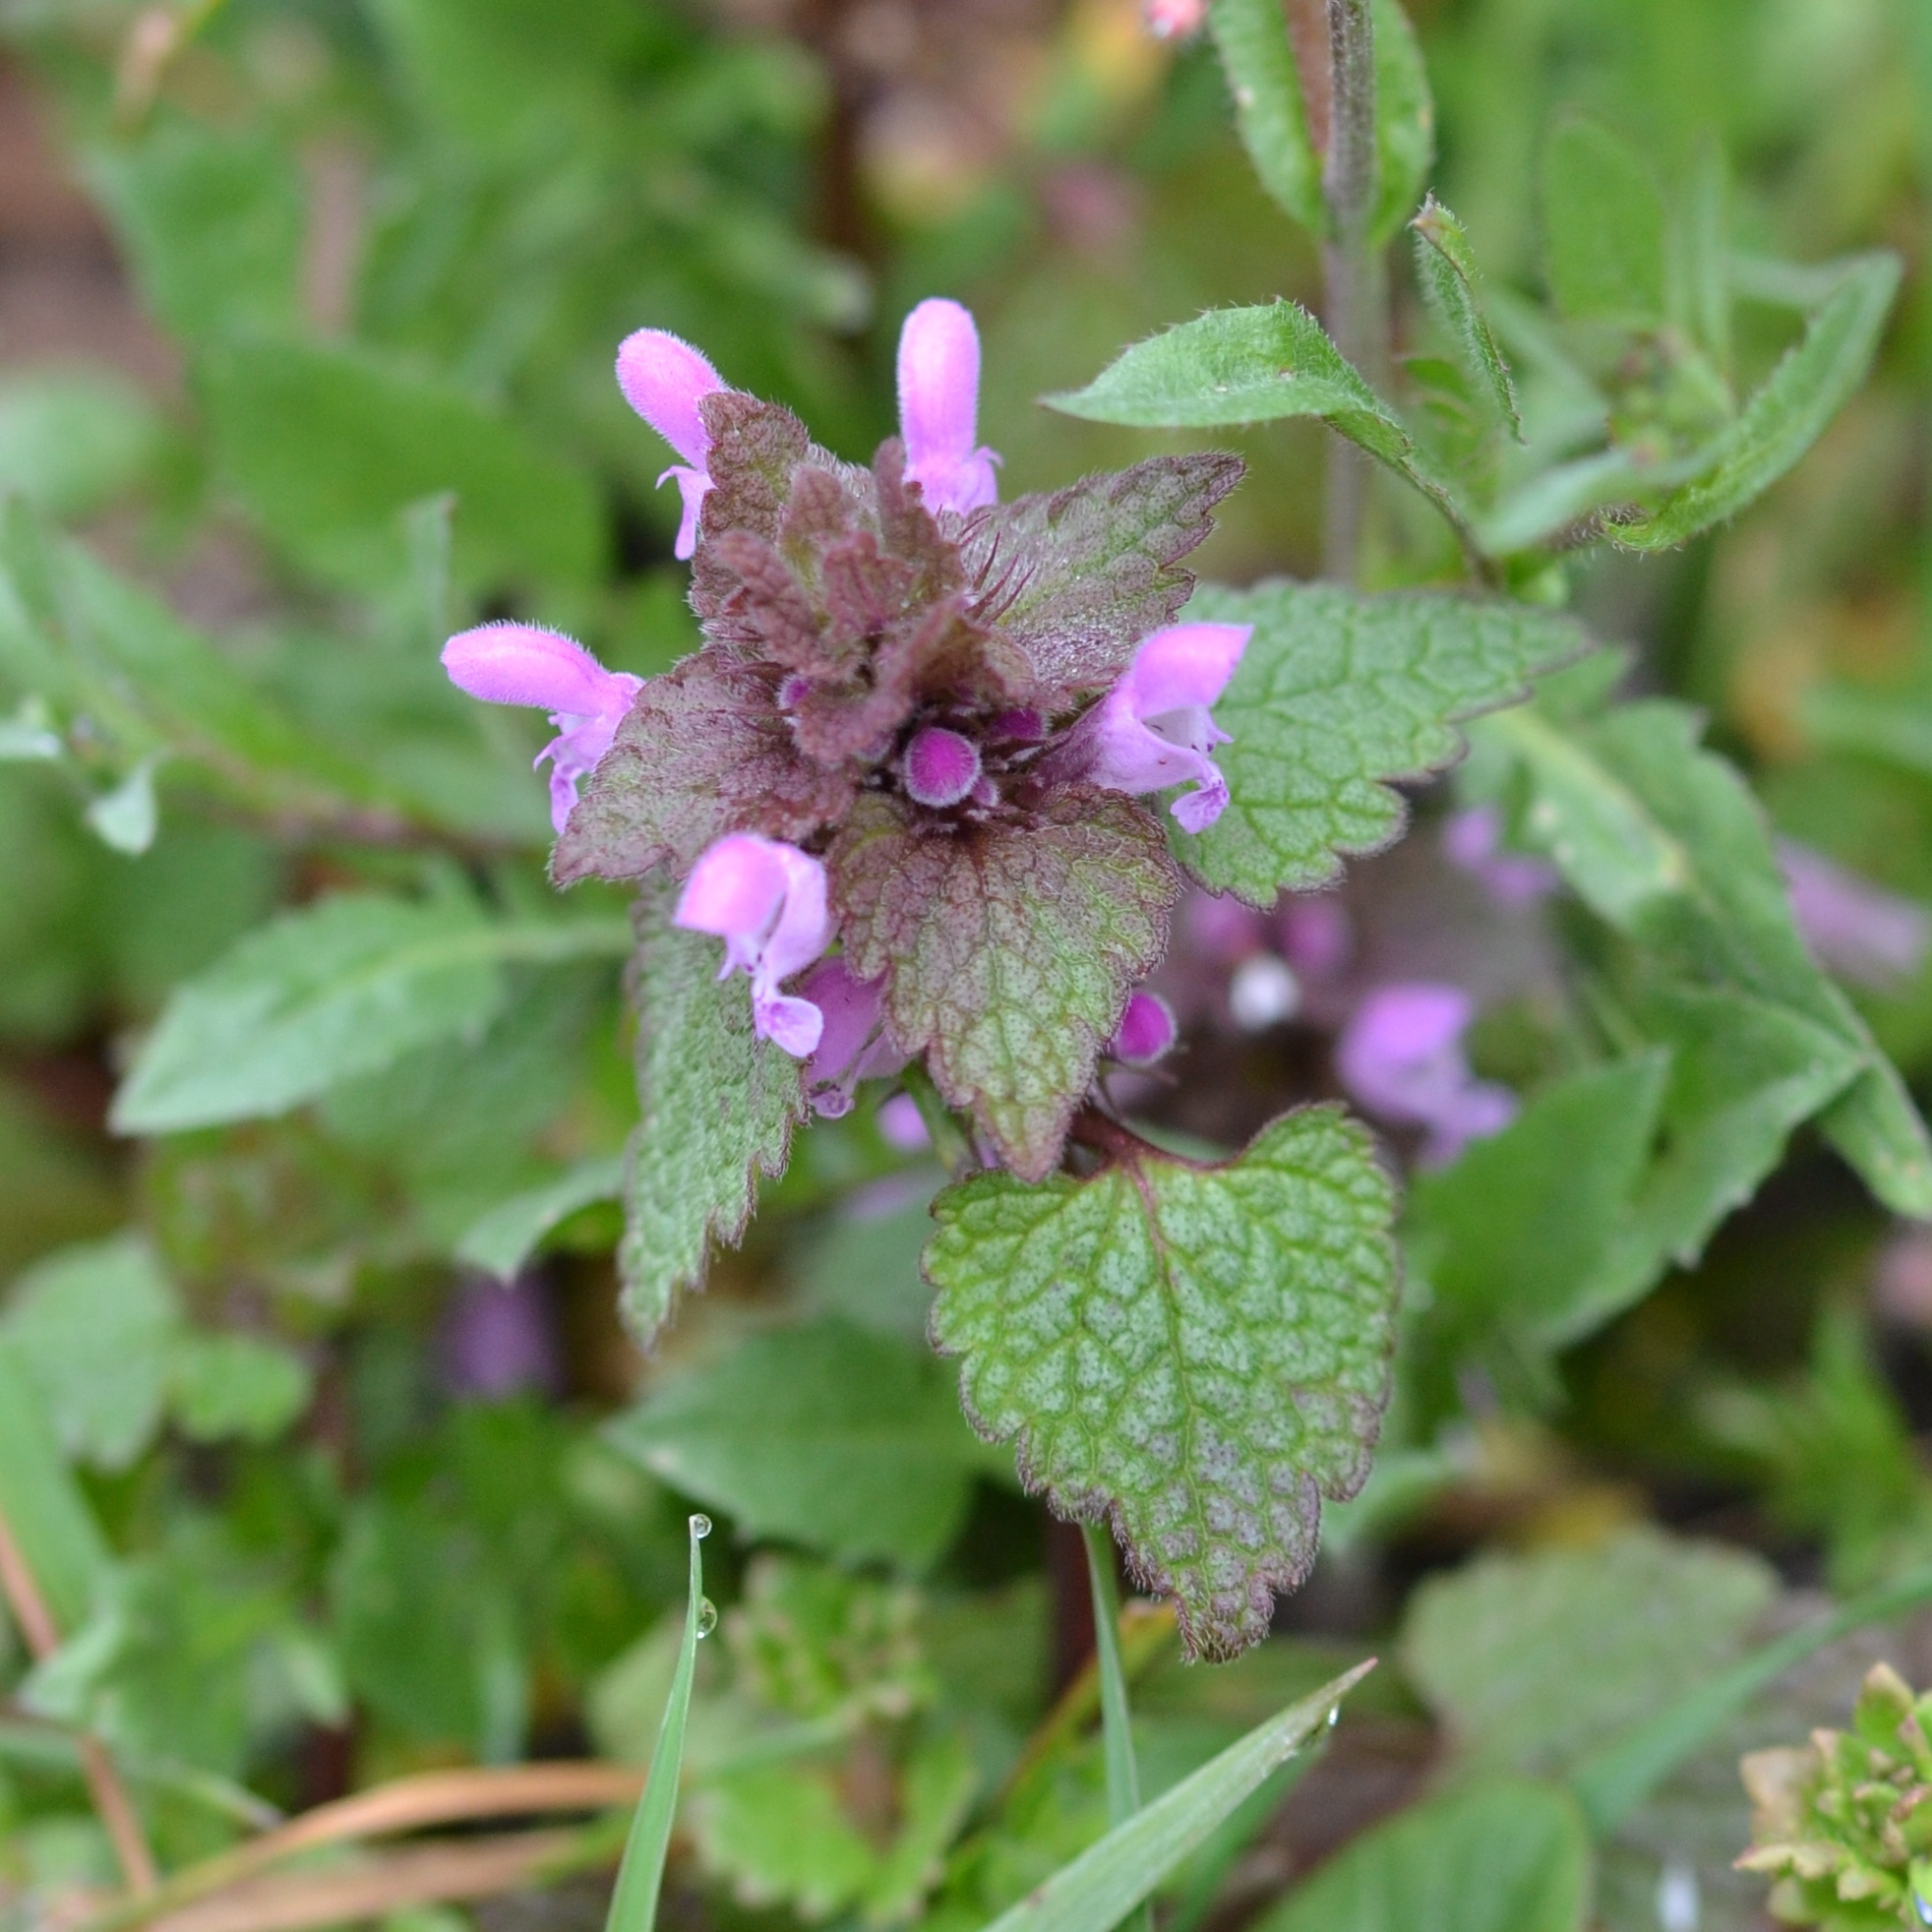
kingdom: Plantae
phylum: Tracheophyta
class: Magnoliopsida
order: Lamiales
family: Lamiaceae
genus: Lamium
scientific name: Lamium purpureum
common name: Red dead-nettle
